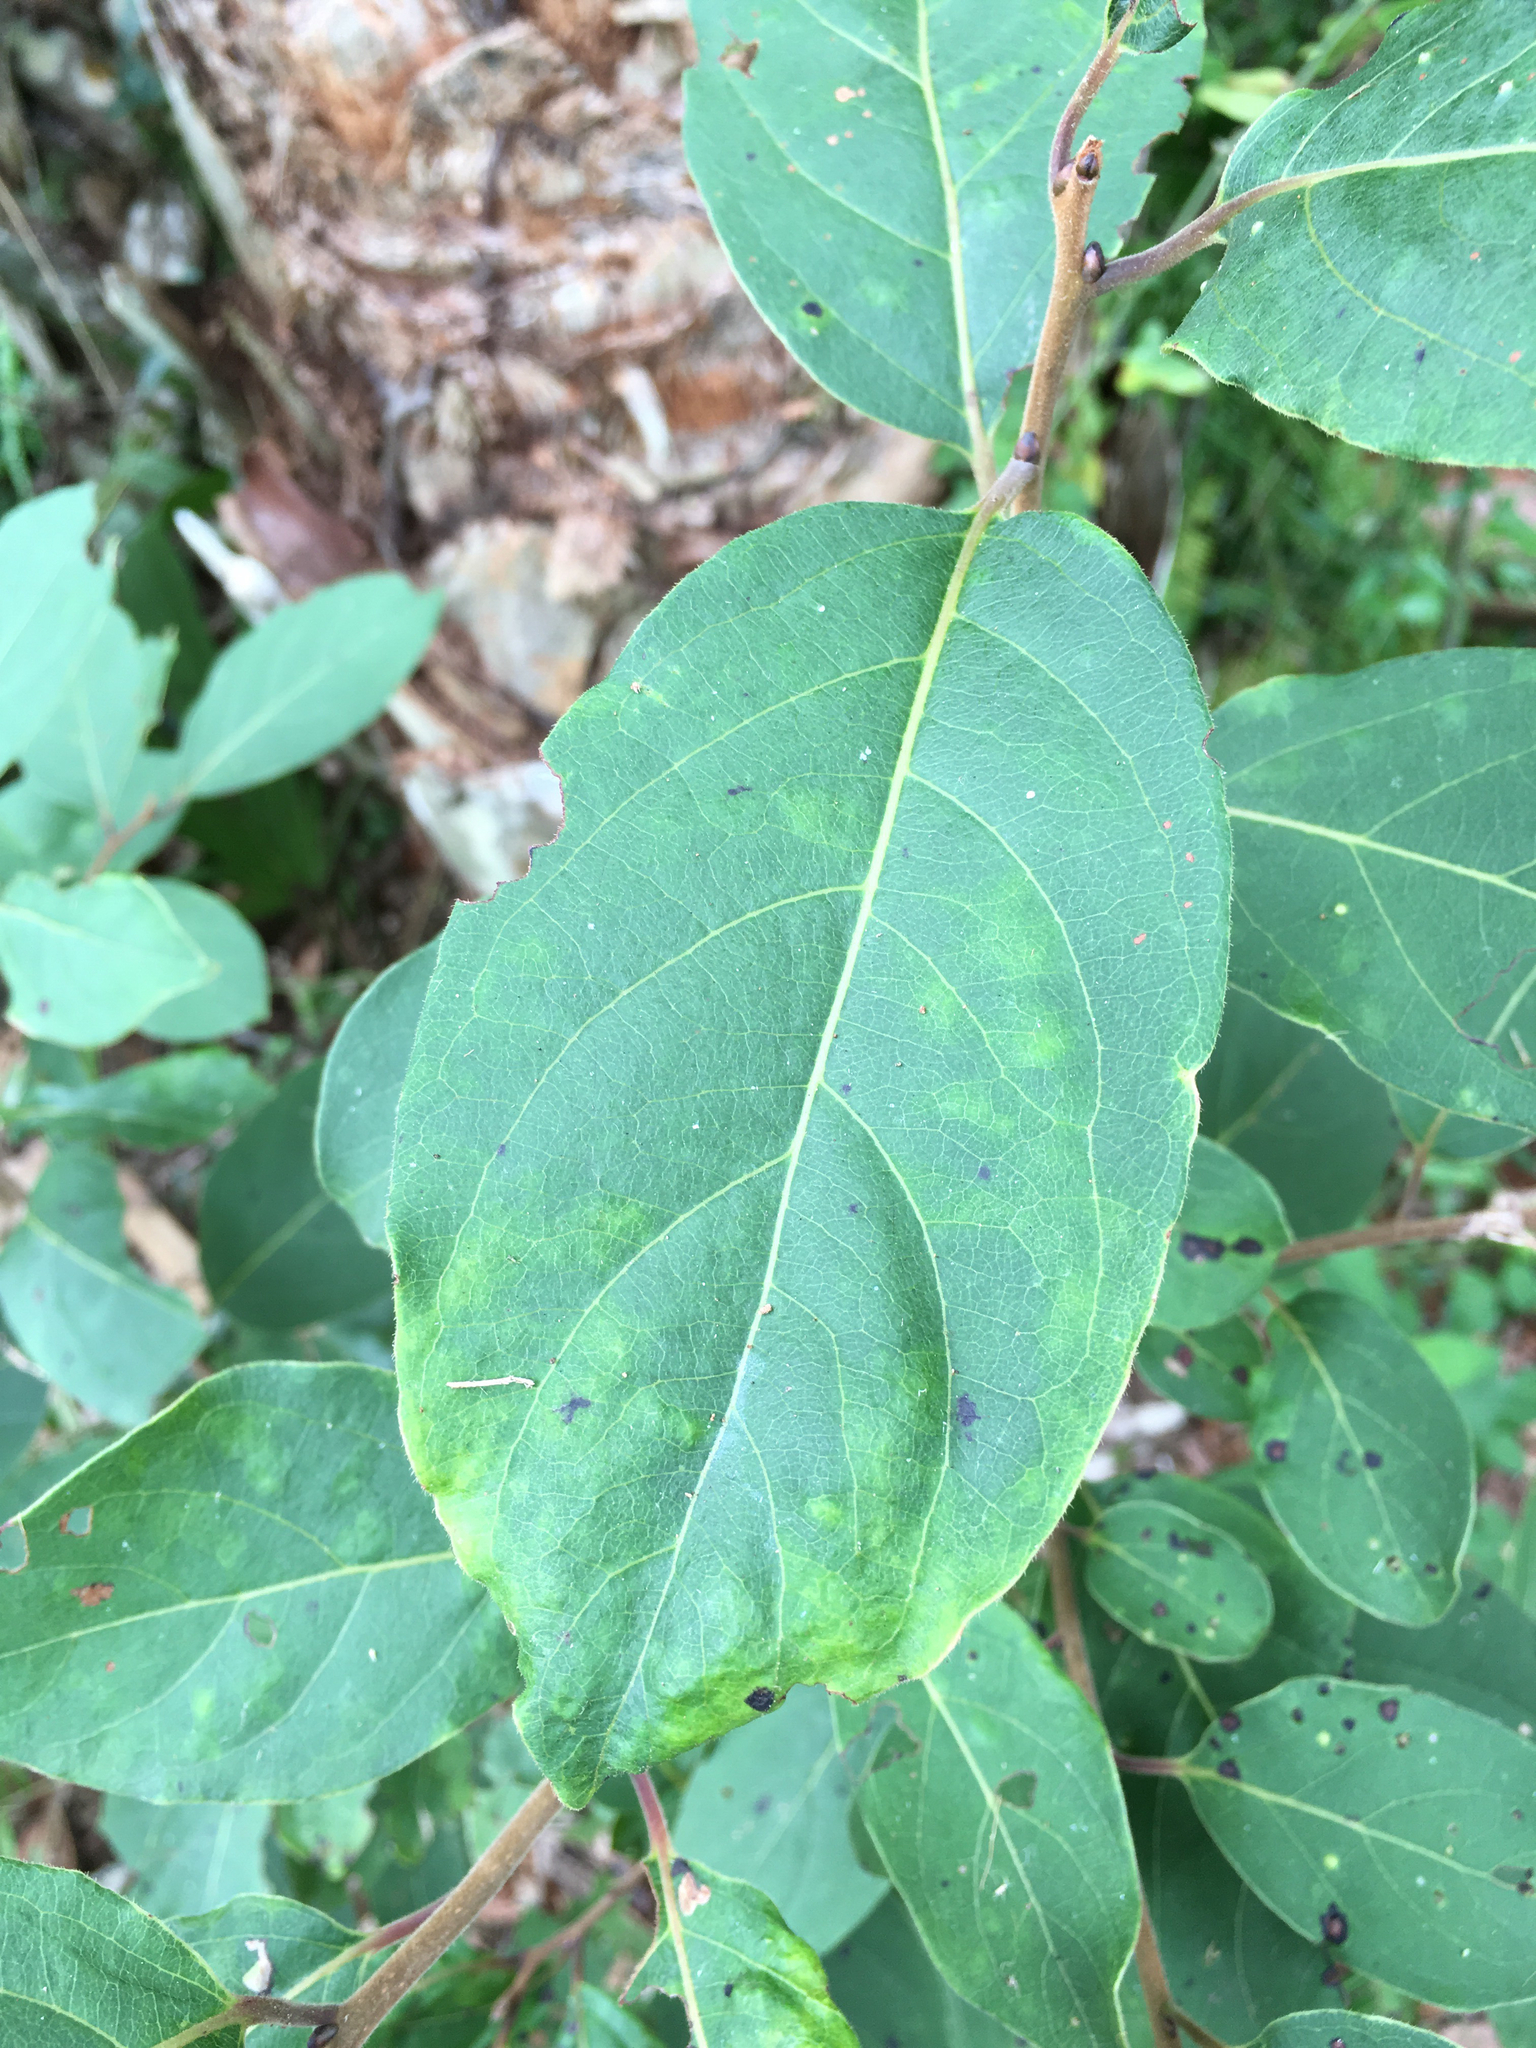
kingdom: Plantae
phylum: Tracheophyta
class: Magnoliopsida
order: Ericales
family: Ebenaceae
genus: Diospyros
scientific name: Diospyros virginiana
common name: Persimmon
